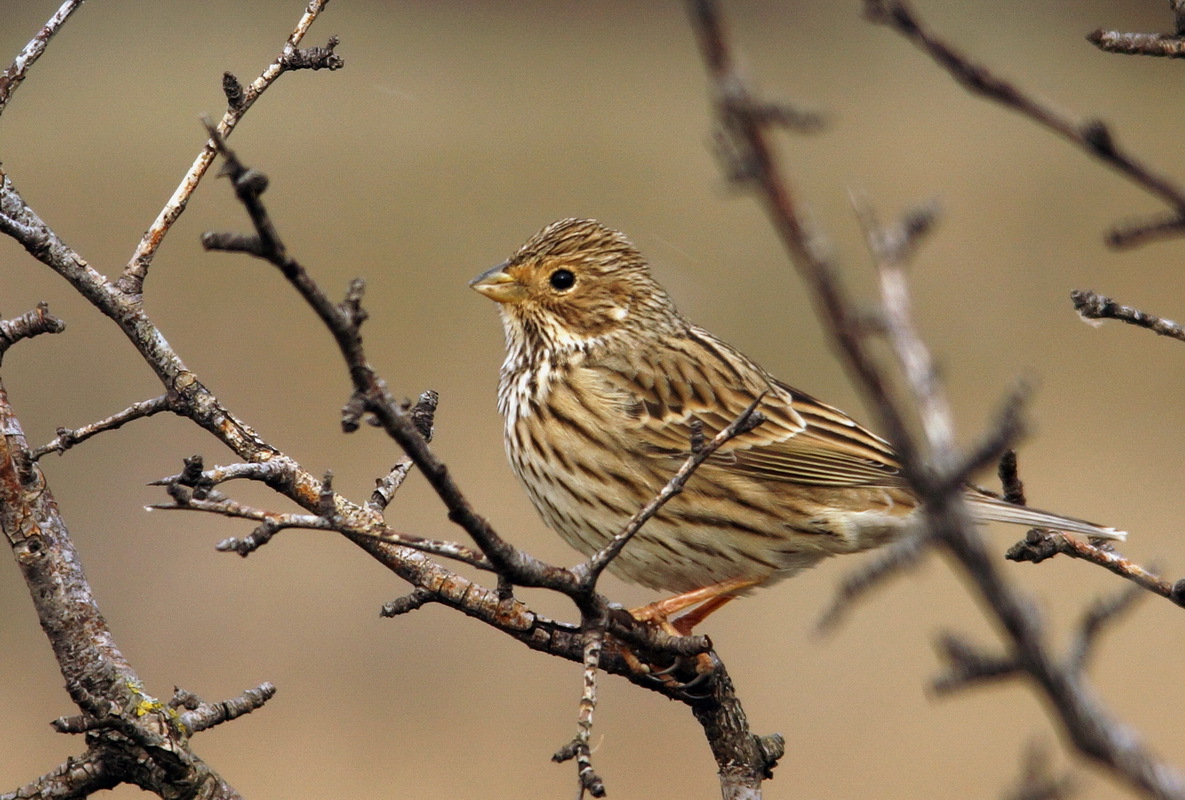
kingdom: Animalia
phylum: Chordata
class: Aves
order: Passeriformes
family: Emberizidae
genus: Emberiza
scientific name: Emberiza calandra
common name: Corn bunting
